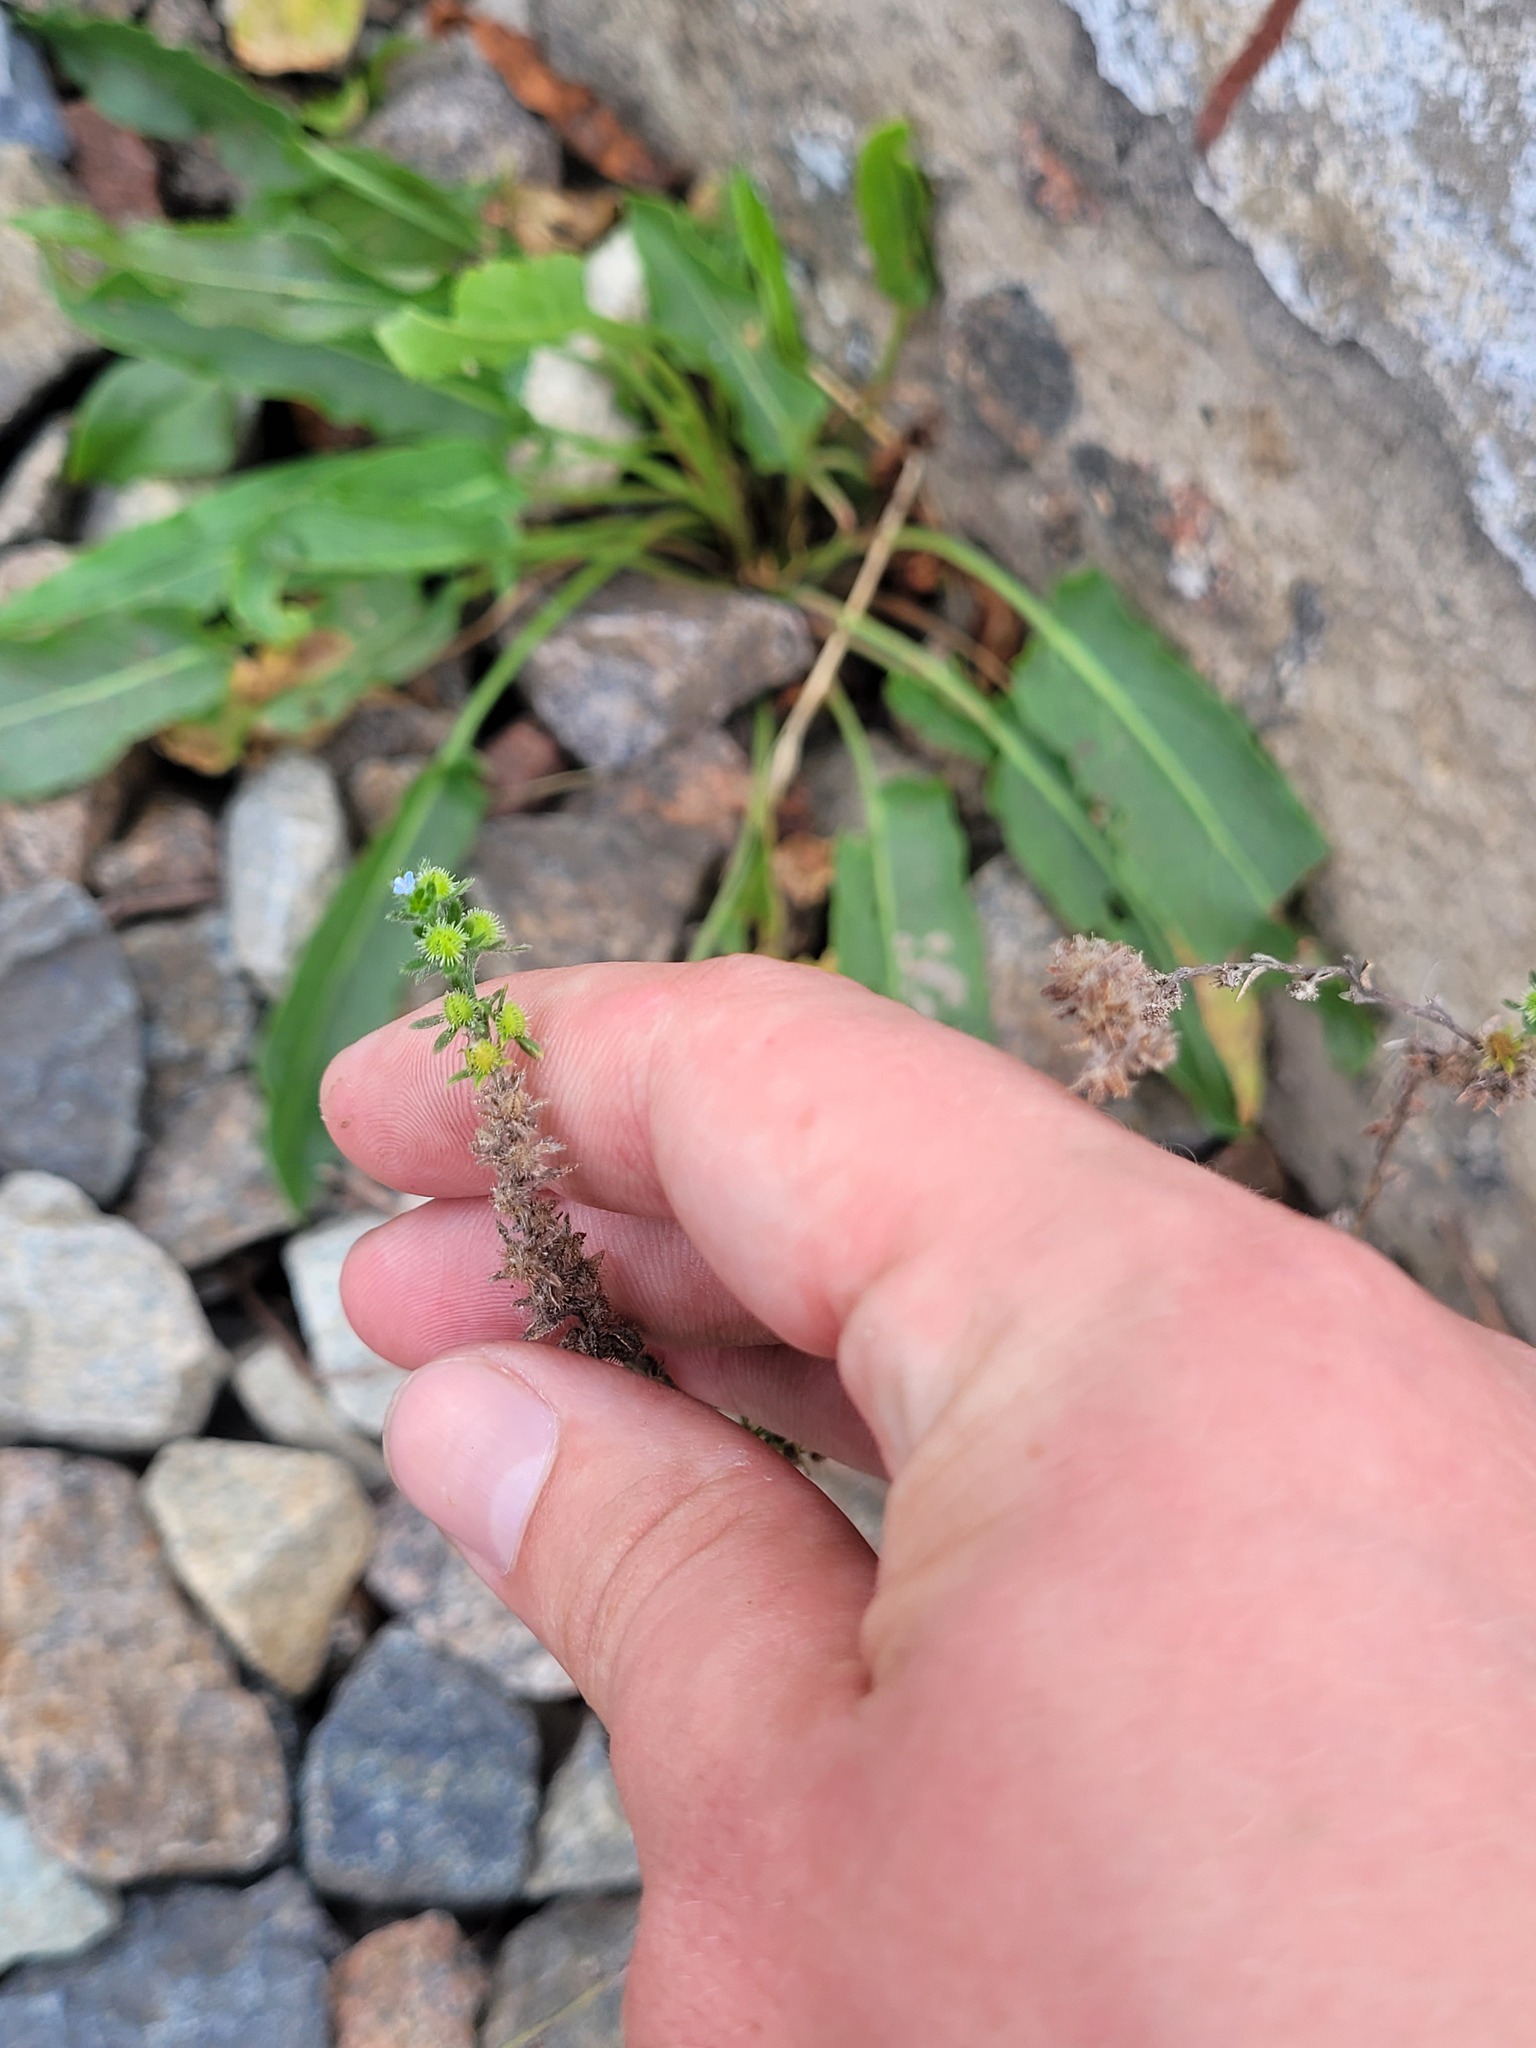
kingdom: Plantae
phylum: Tracheophyta
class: Magnoliopsida
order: Boraginales
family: Boraginaceae
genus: Lappula
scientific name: Lappula squarrosa
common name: European stickseed
